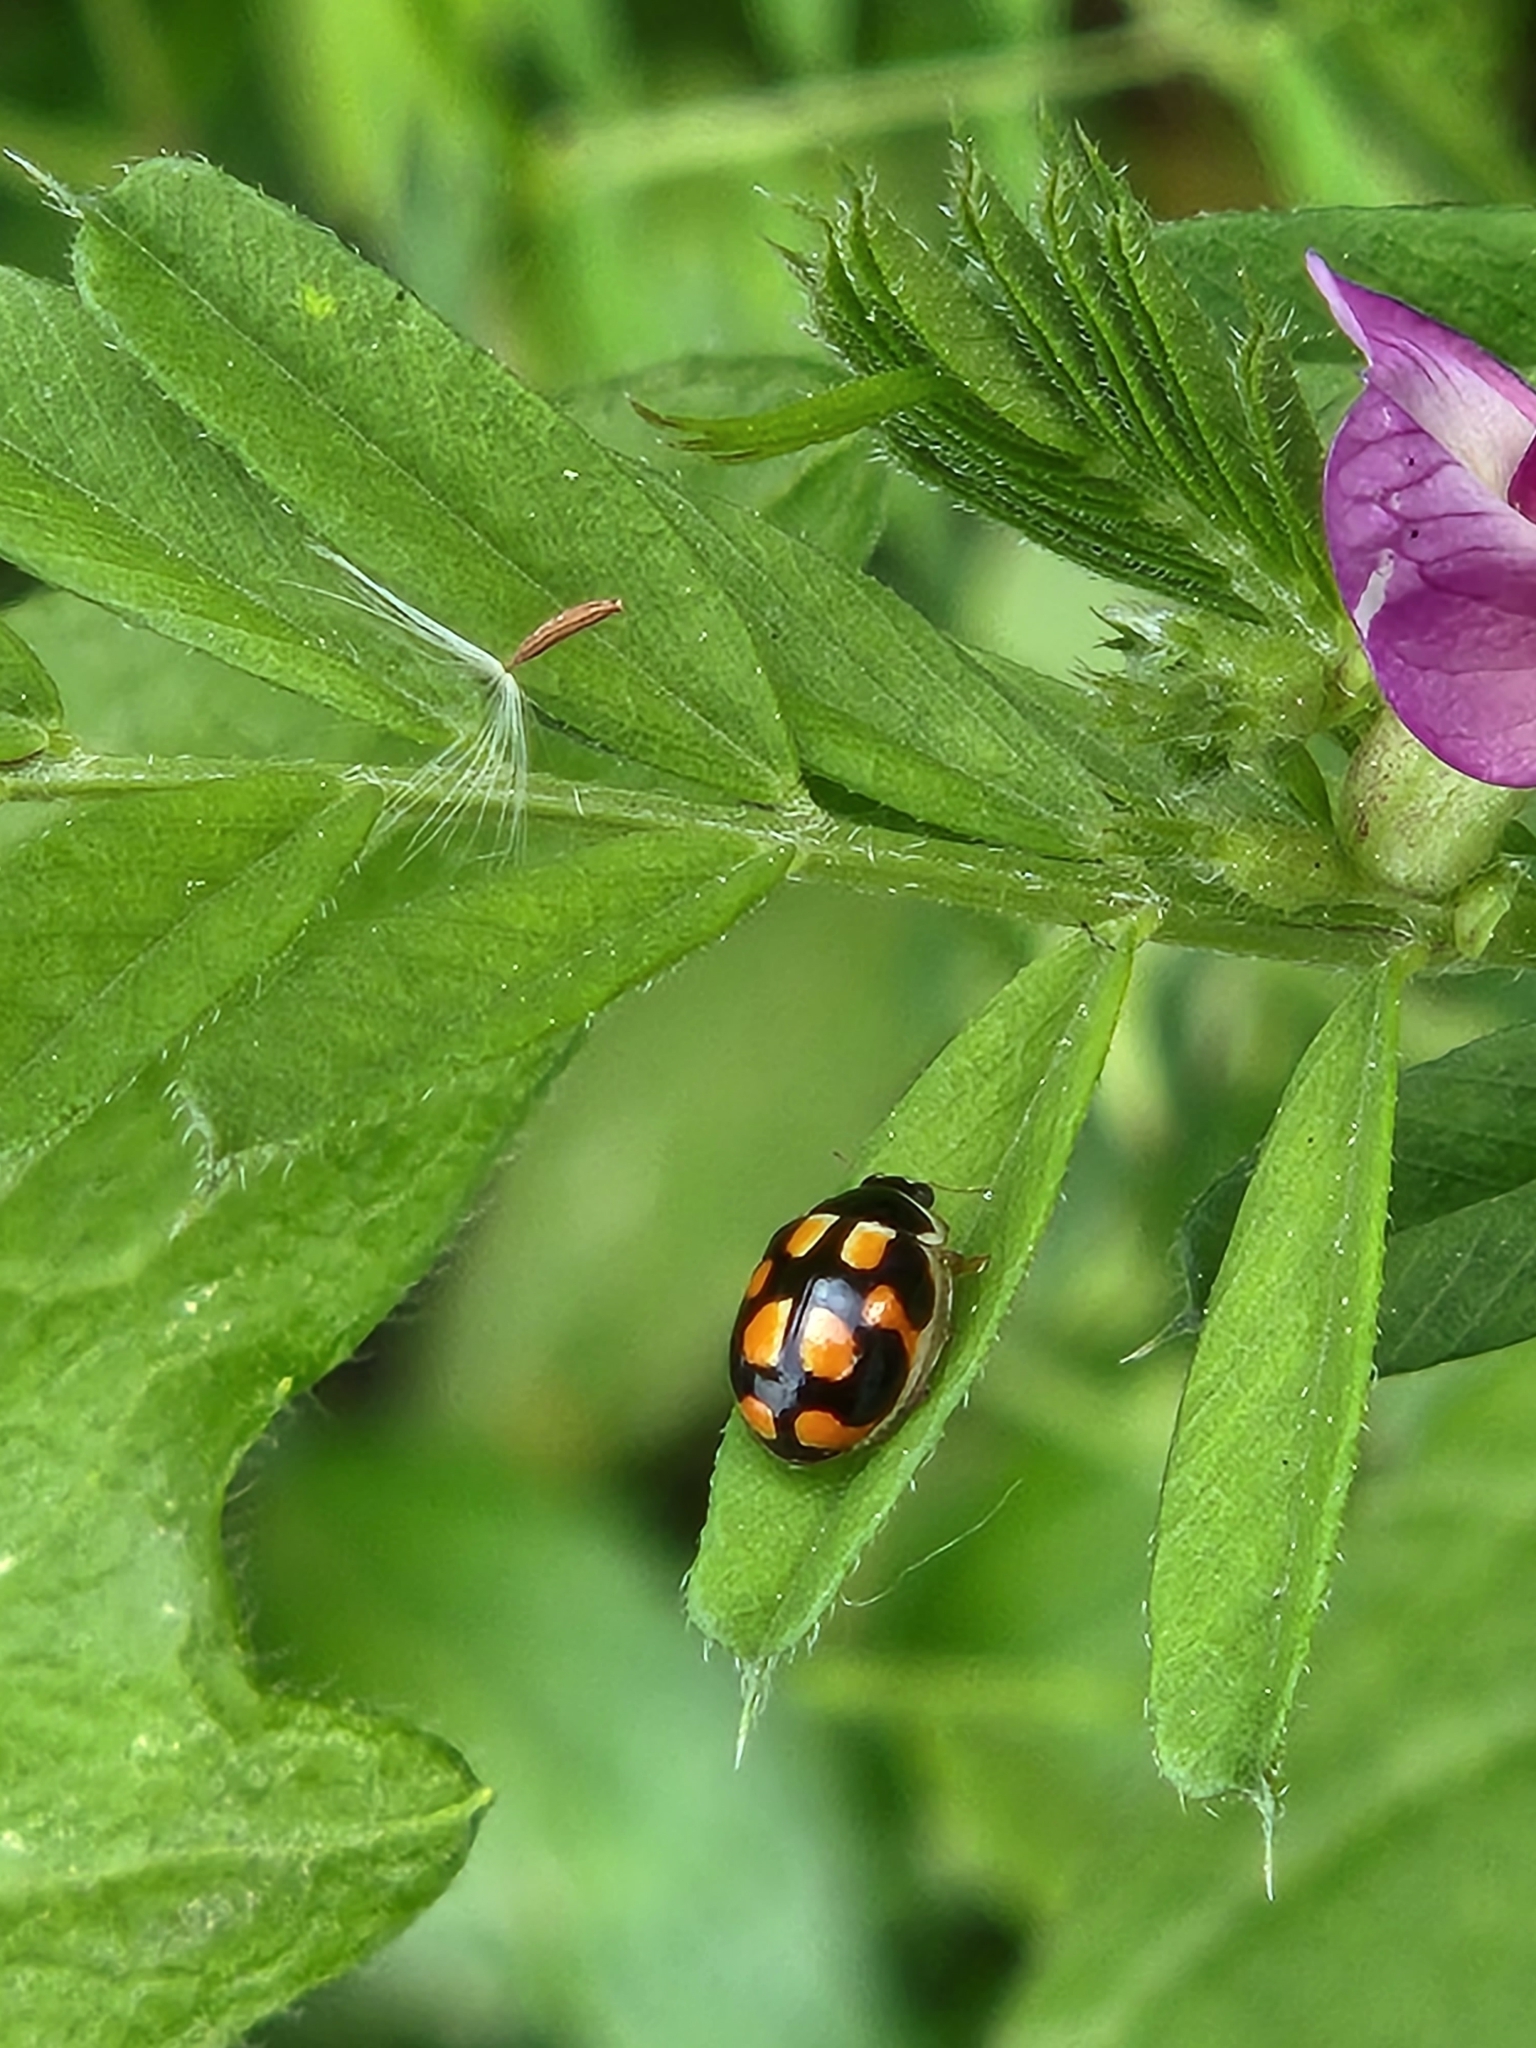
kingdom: Animalia
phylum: Arthropoda
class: Insecta
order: Coleoptera
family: Coccinellidae
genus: Propylea
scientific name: Propylea japonica
